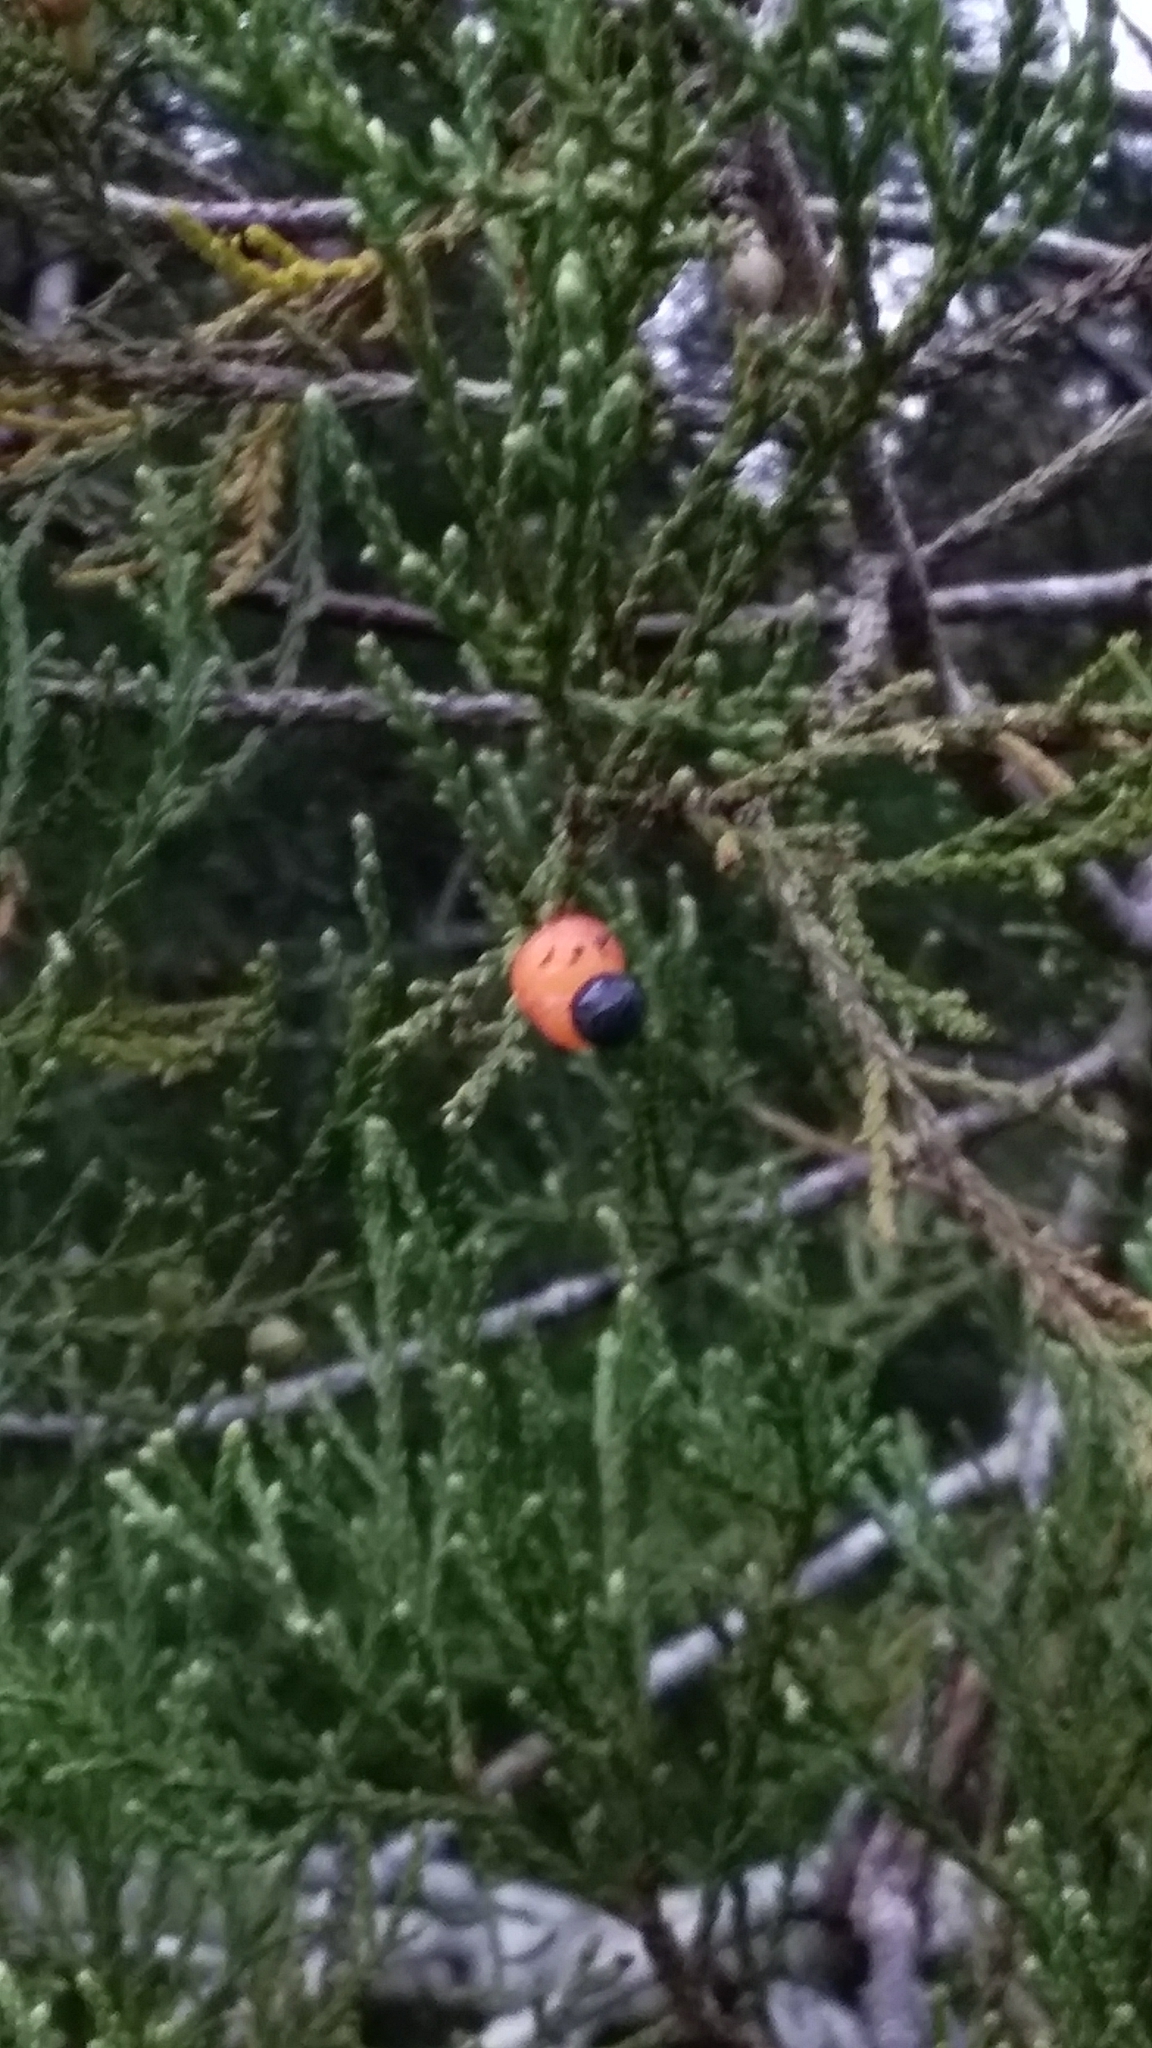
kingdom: Plantae
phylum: Tracheophyta
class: Pinopsida
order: Pinales
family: Podocarpaceae
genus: Dacrycarpus
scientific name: Dacrycarpus dacrydioides
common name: White pine
